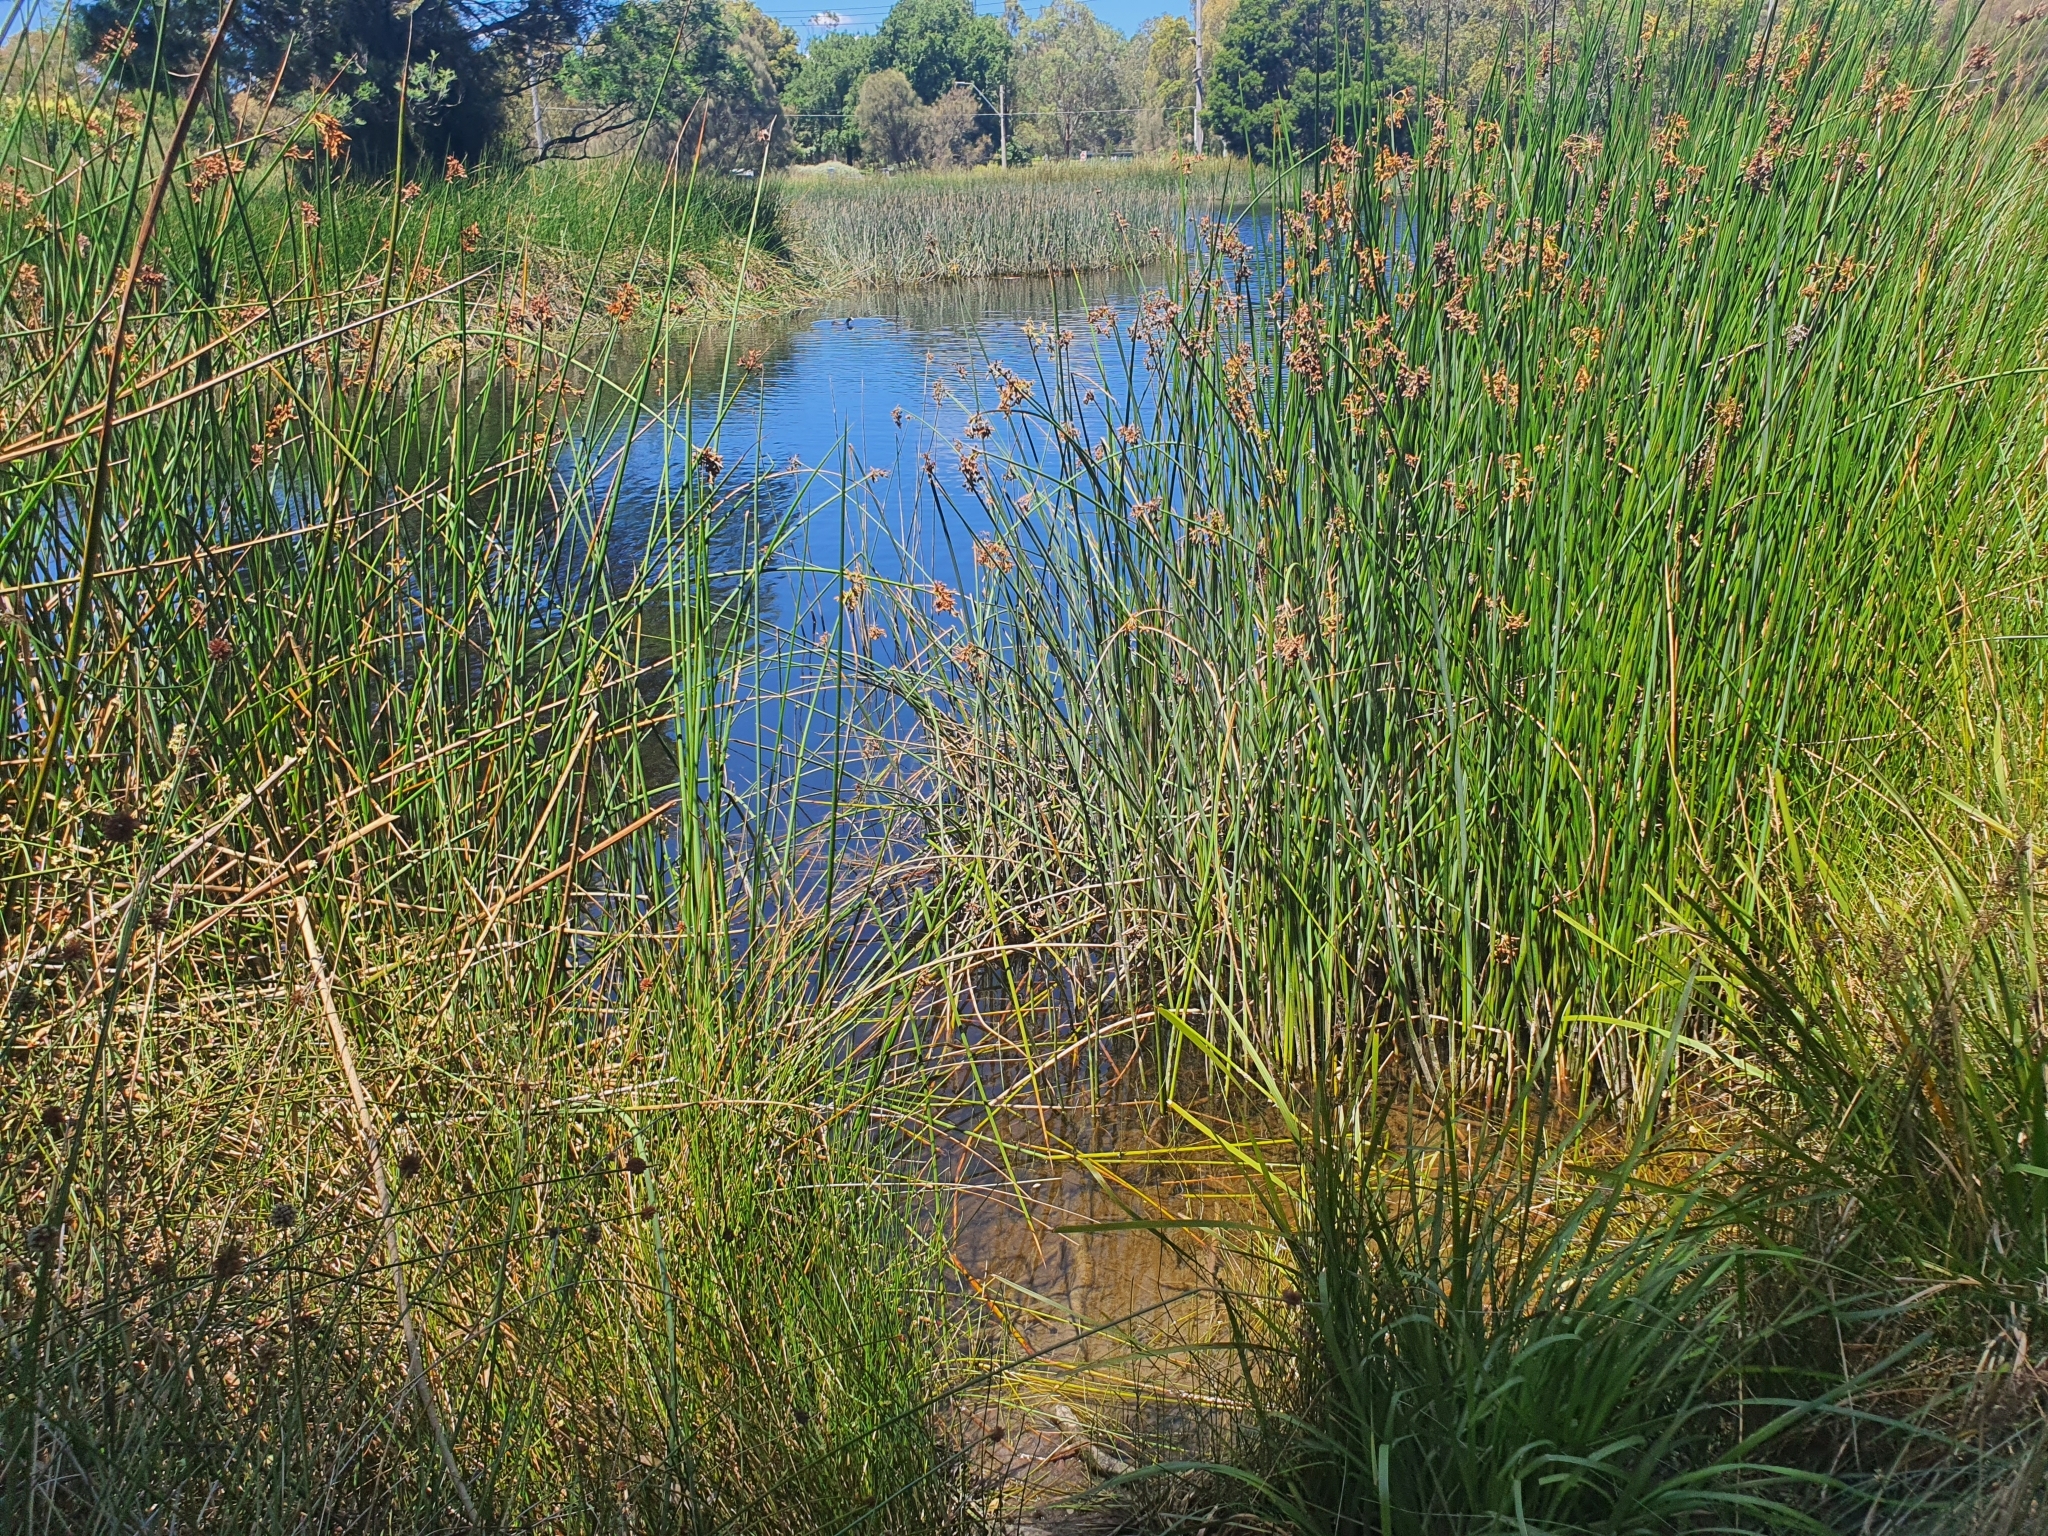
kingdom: Animalia
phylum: Chordata
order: Cyprinodontiformes
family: Poeciliidae
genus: Gambusia
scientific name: Gambusia holbrooki
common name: Eastern mosquitofish
